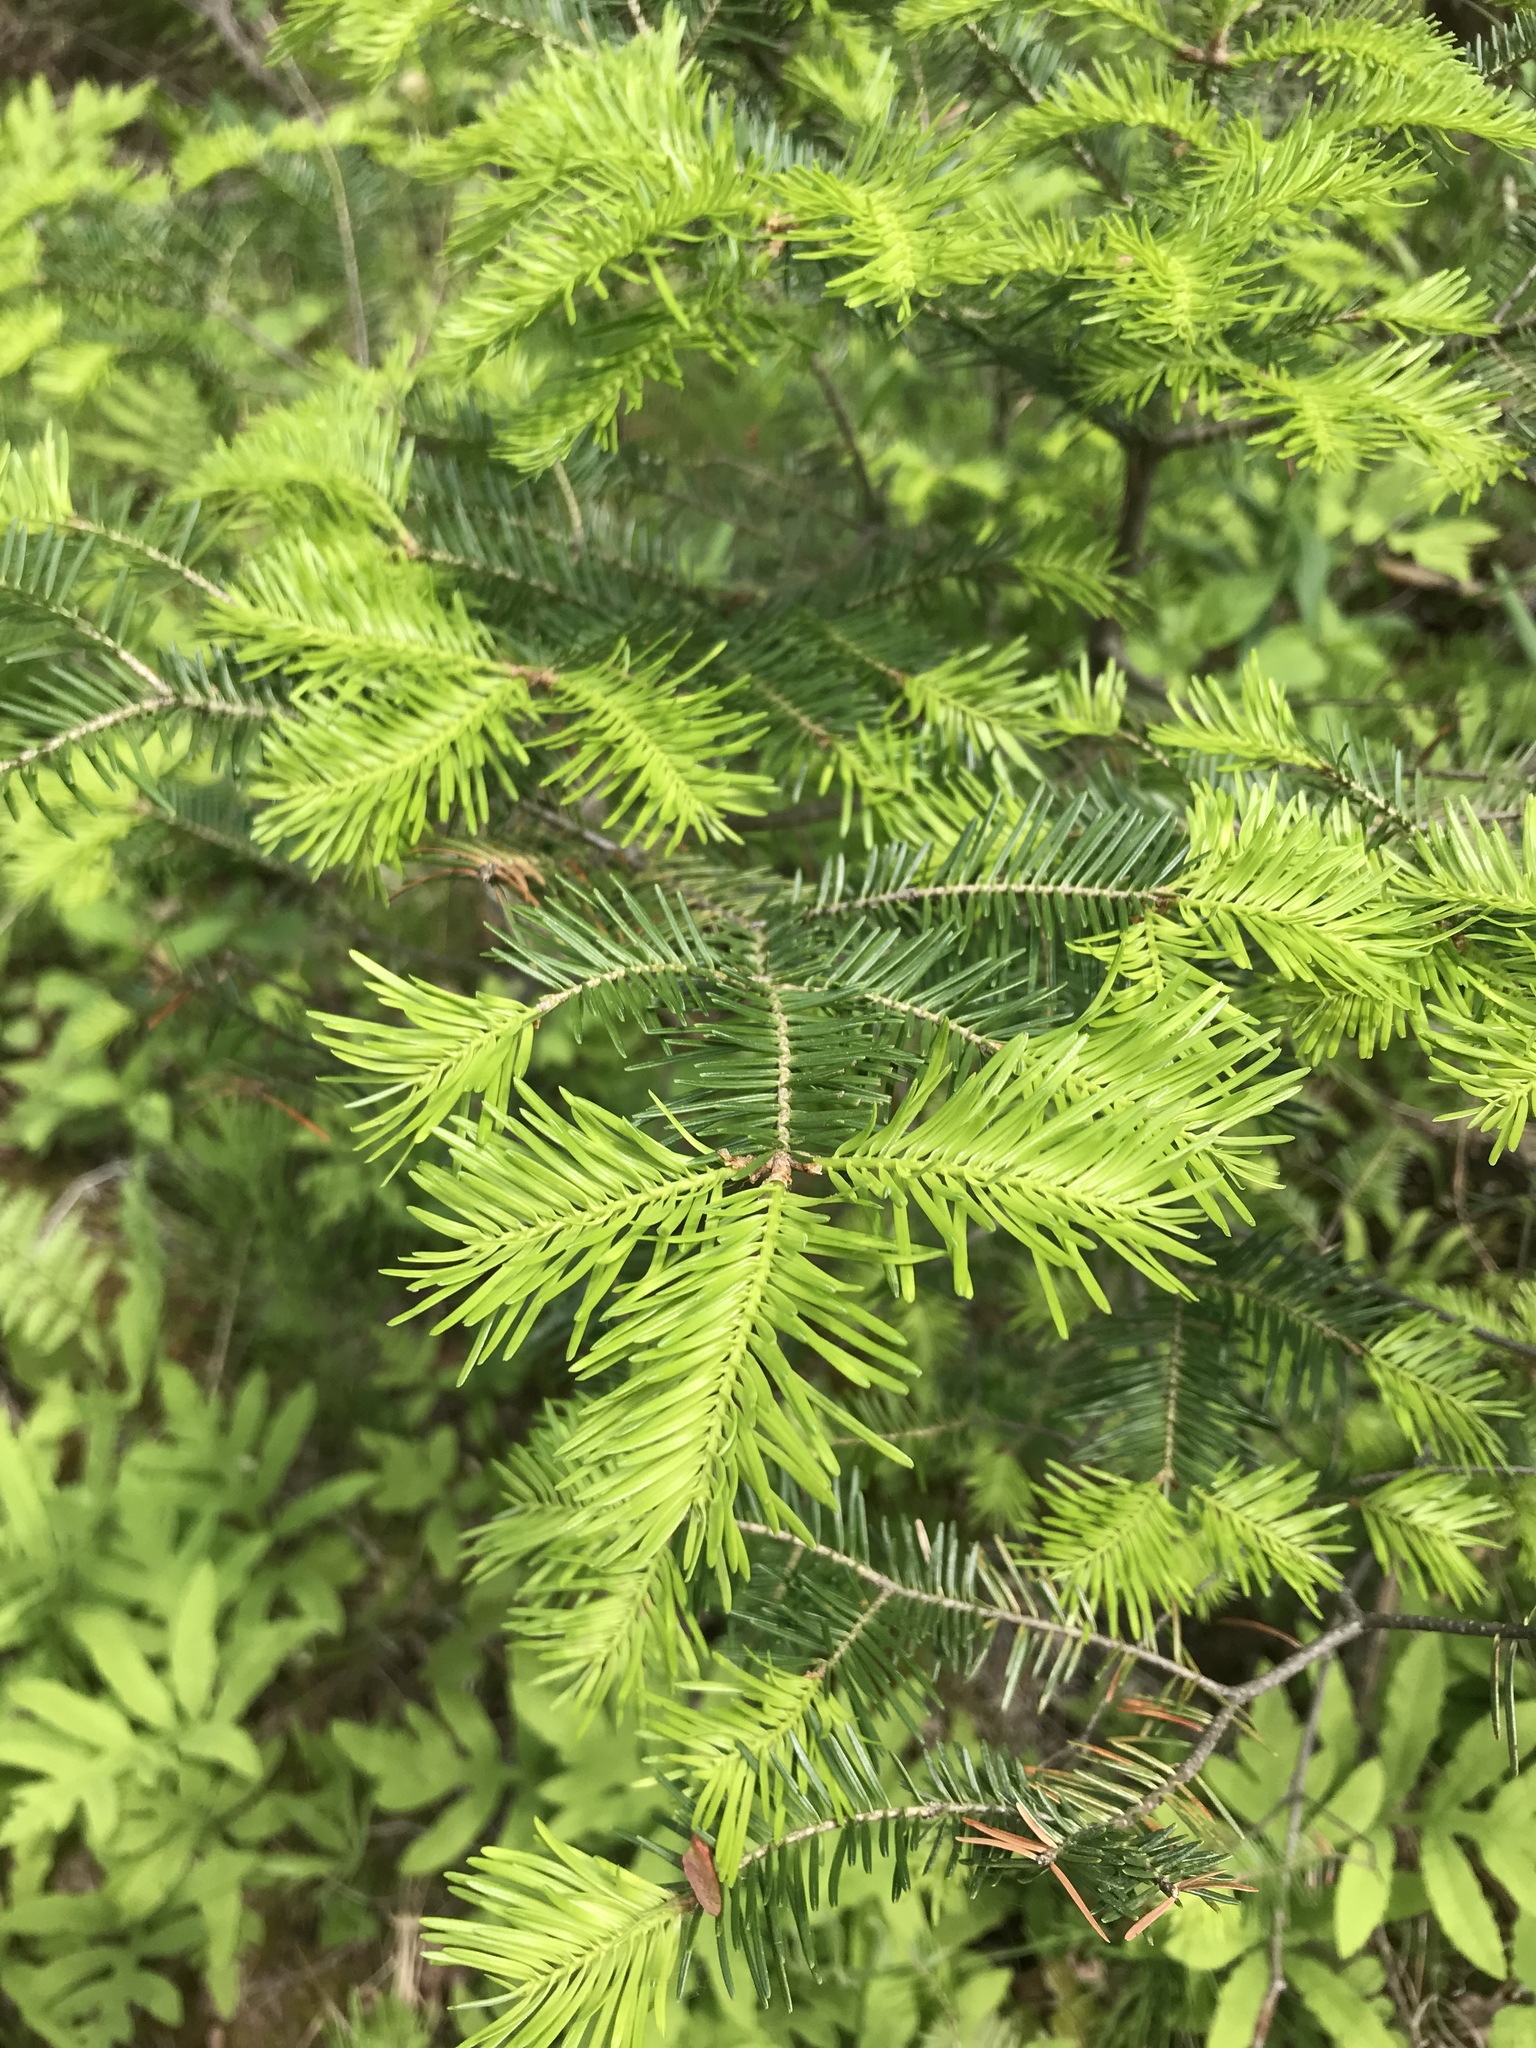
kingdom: Plantae
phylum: Tracheophyta
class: Pinopsida
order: Pinales
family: Pinaceae
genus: Abies
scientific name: Abies balsamea
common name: Balsam fir
